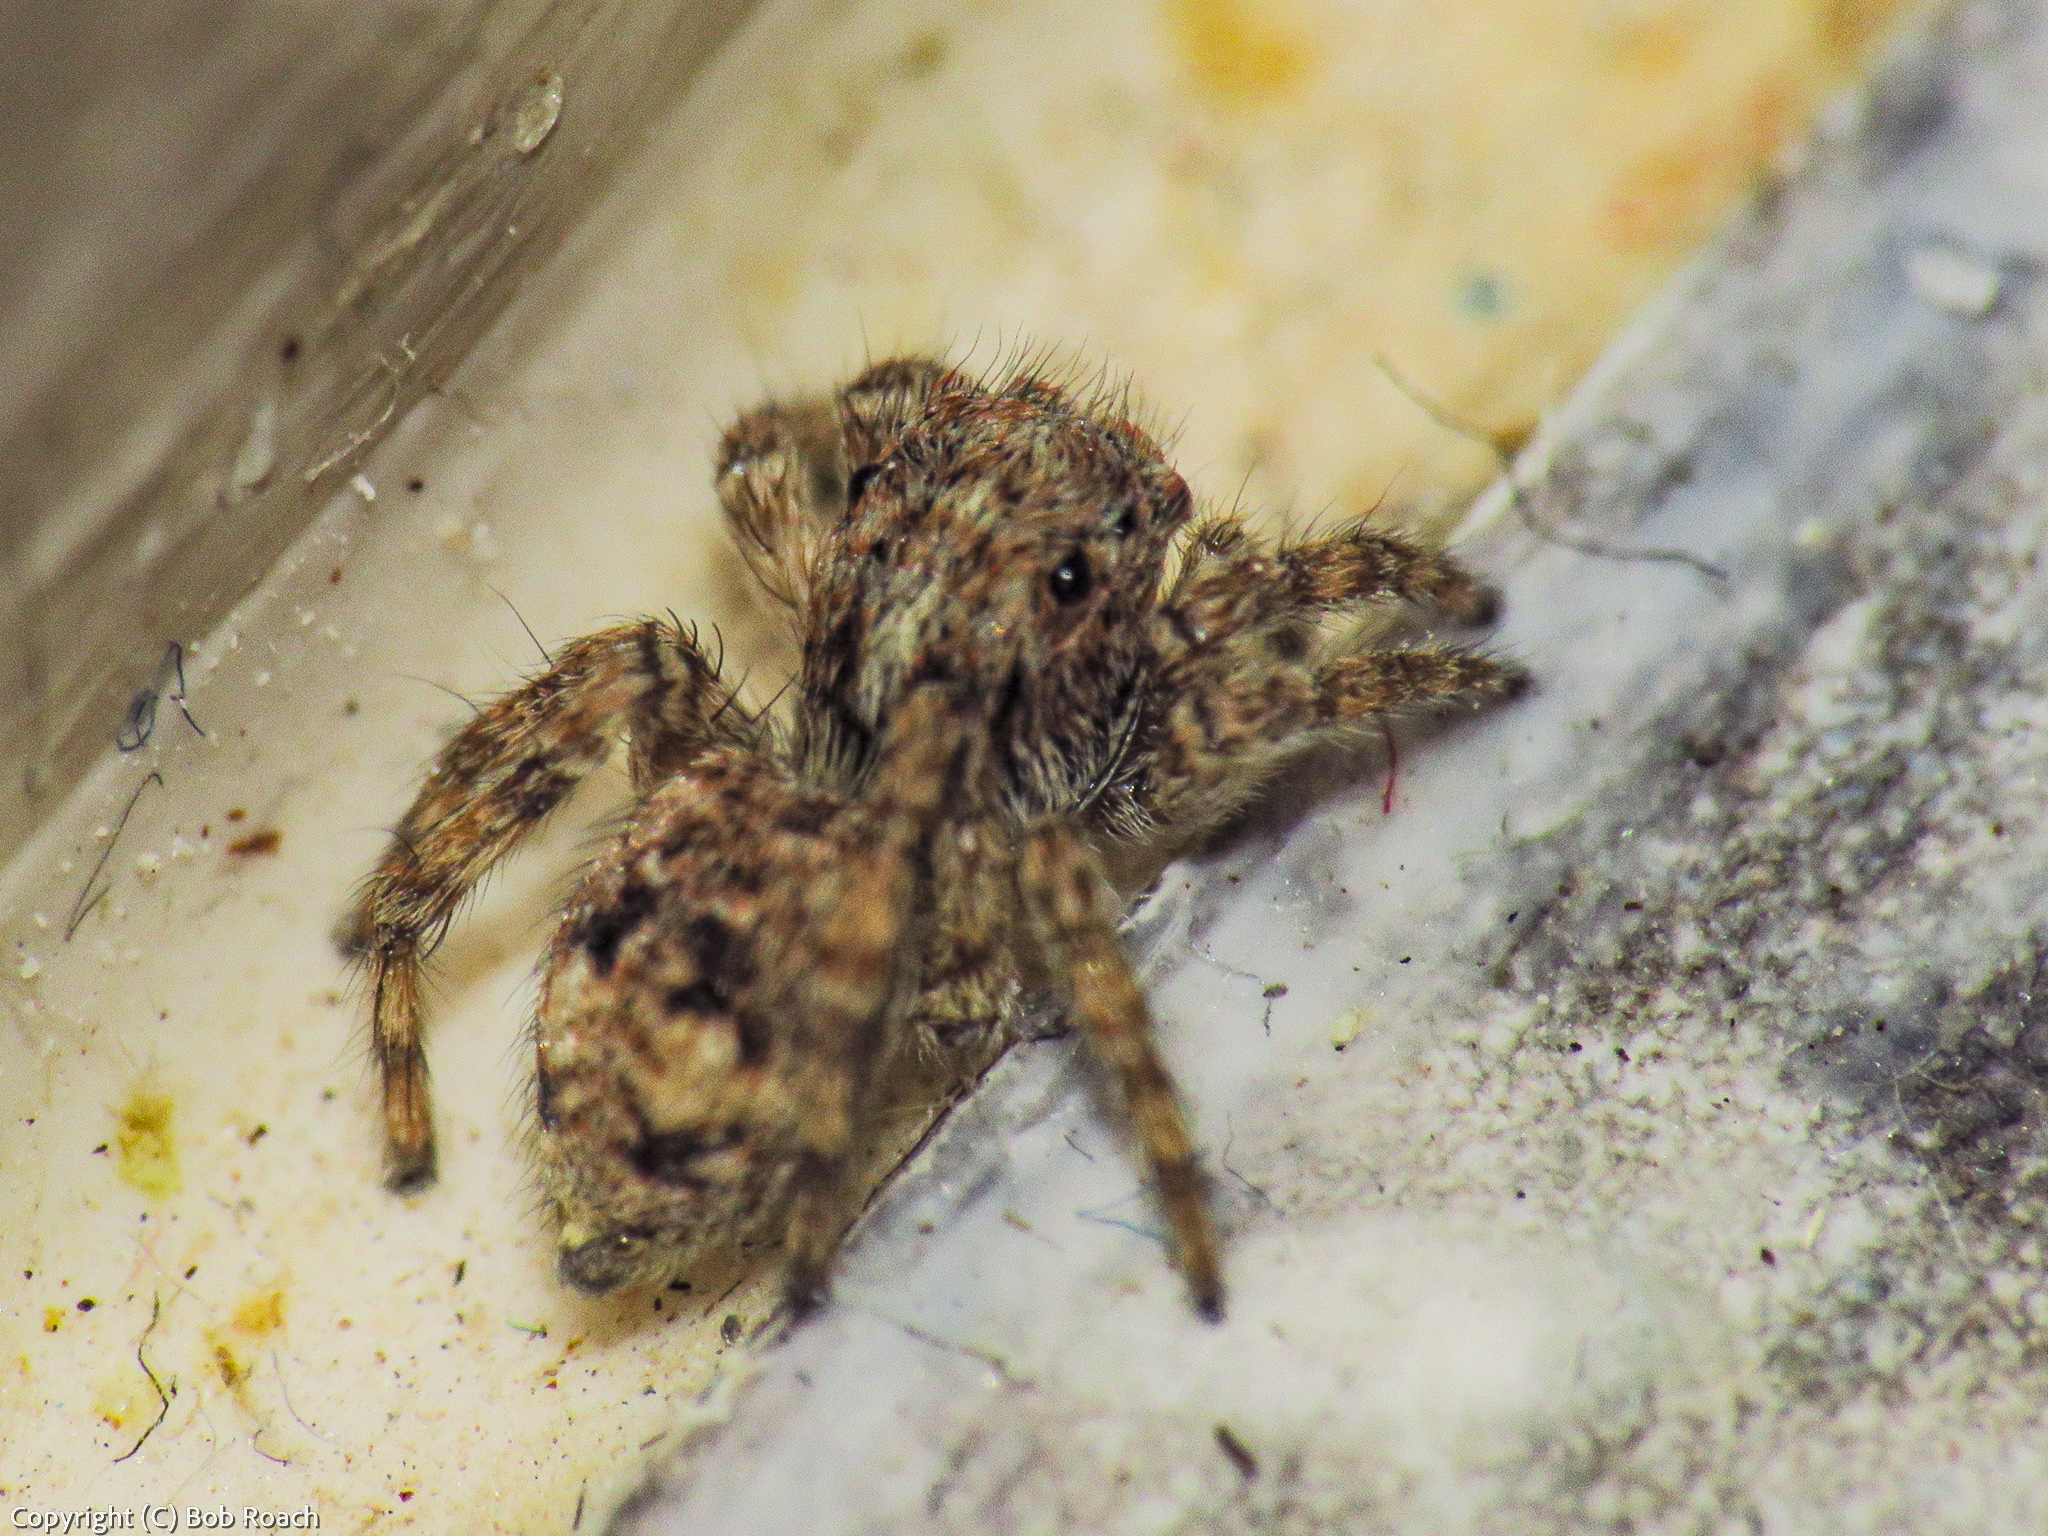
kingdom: Animalia
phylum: Arthropoda
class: Arachnida
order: Araneae
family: Salticidae
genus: Attulus
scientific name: Attulus fasciger
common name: Asiatic wall jumping spider
